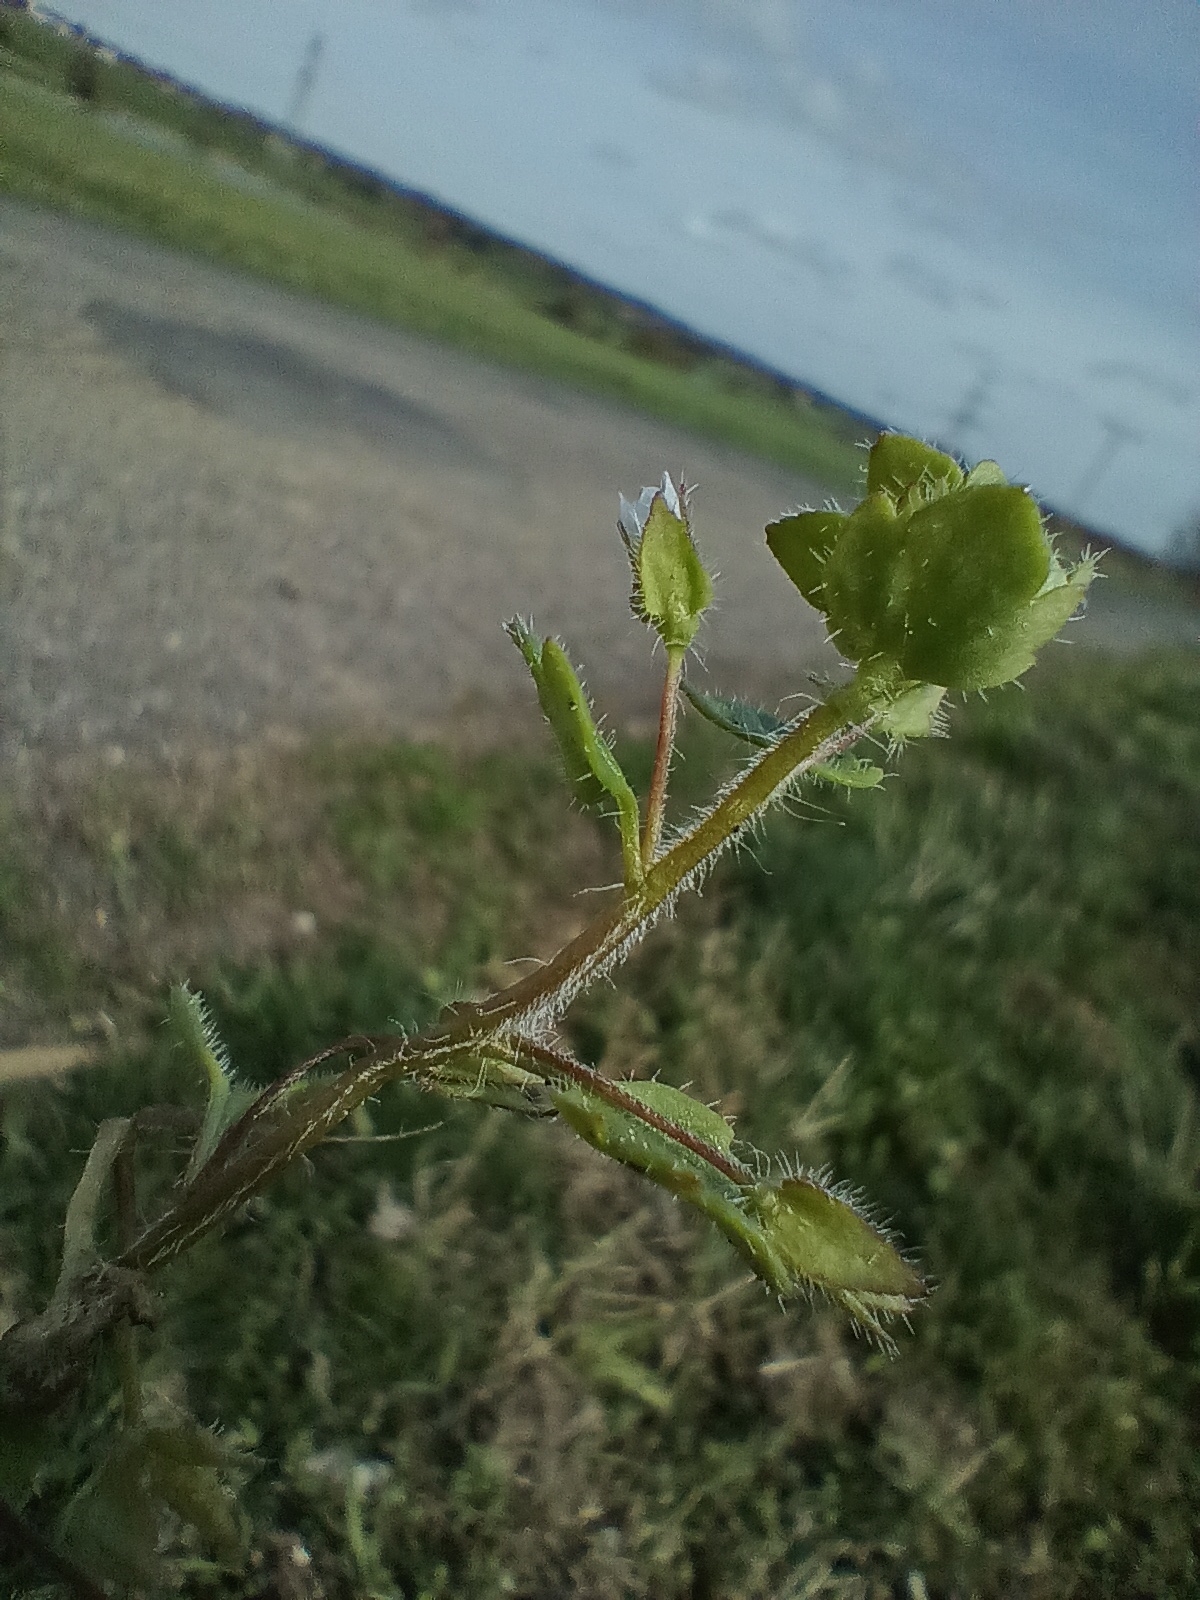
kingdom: Plantae
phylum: Tracheophyta
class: Magnoliopsida
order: Lamiales
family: Plantaginaceae
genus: Veronica
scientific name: Veronica hederifolia
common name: Ivy-leaved speedwell
